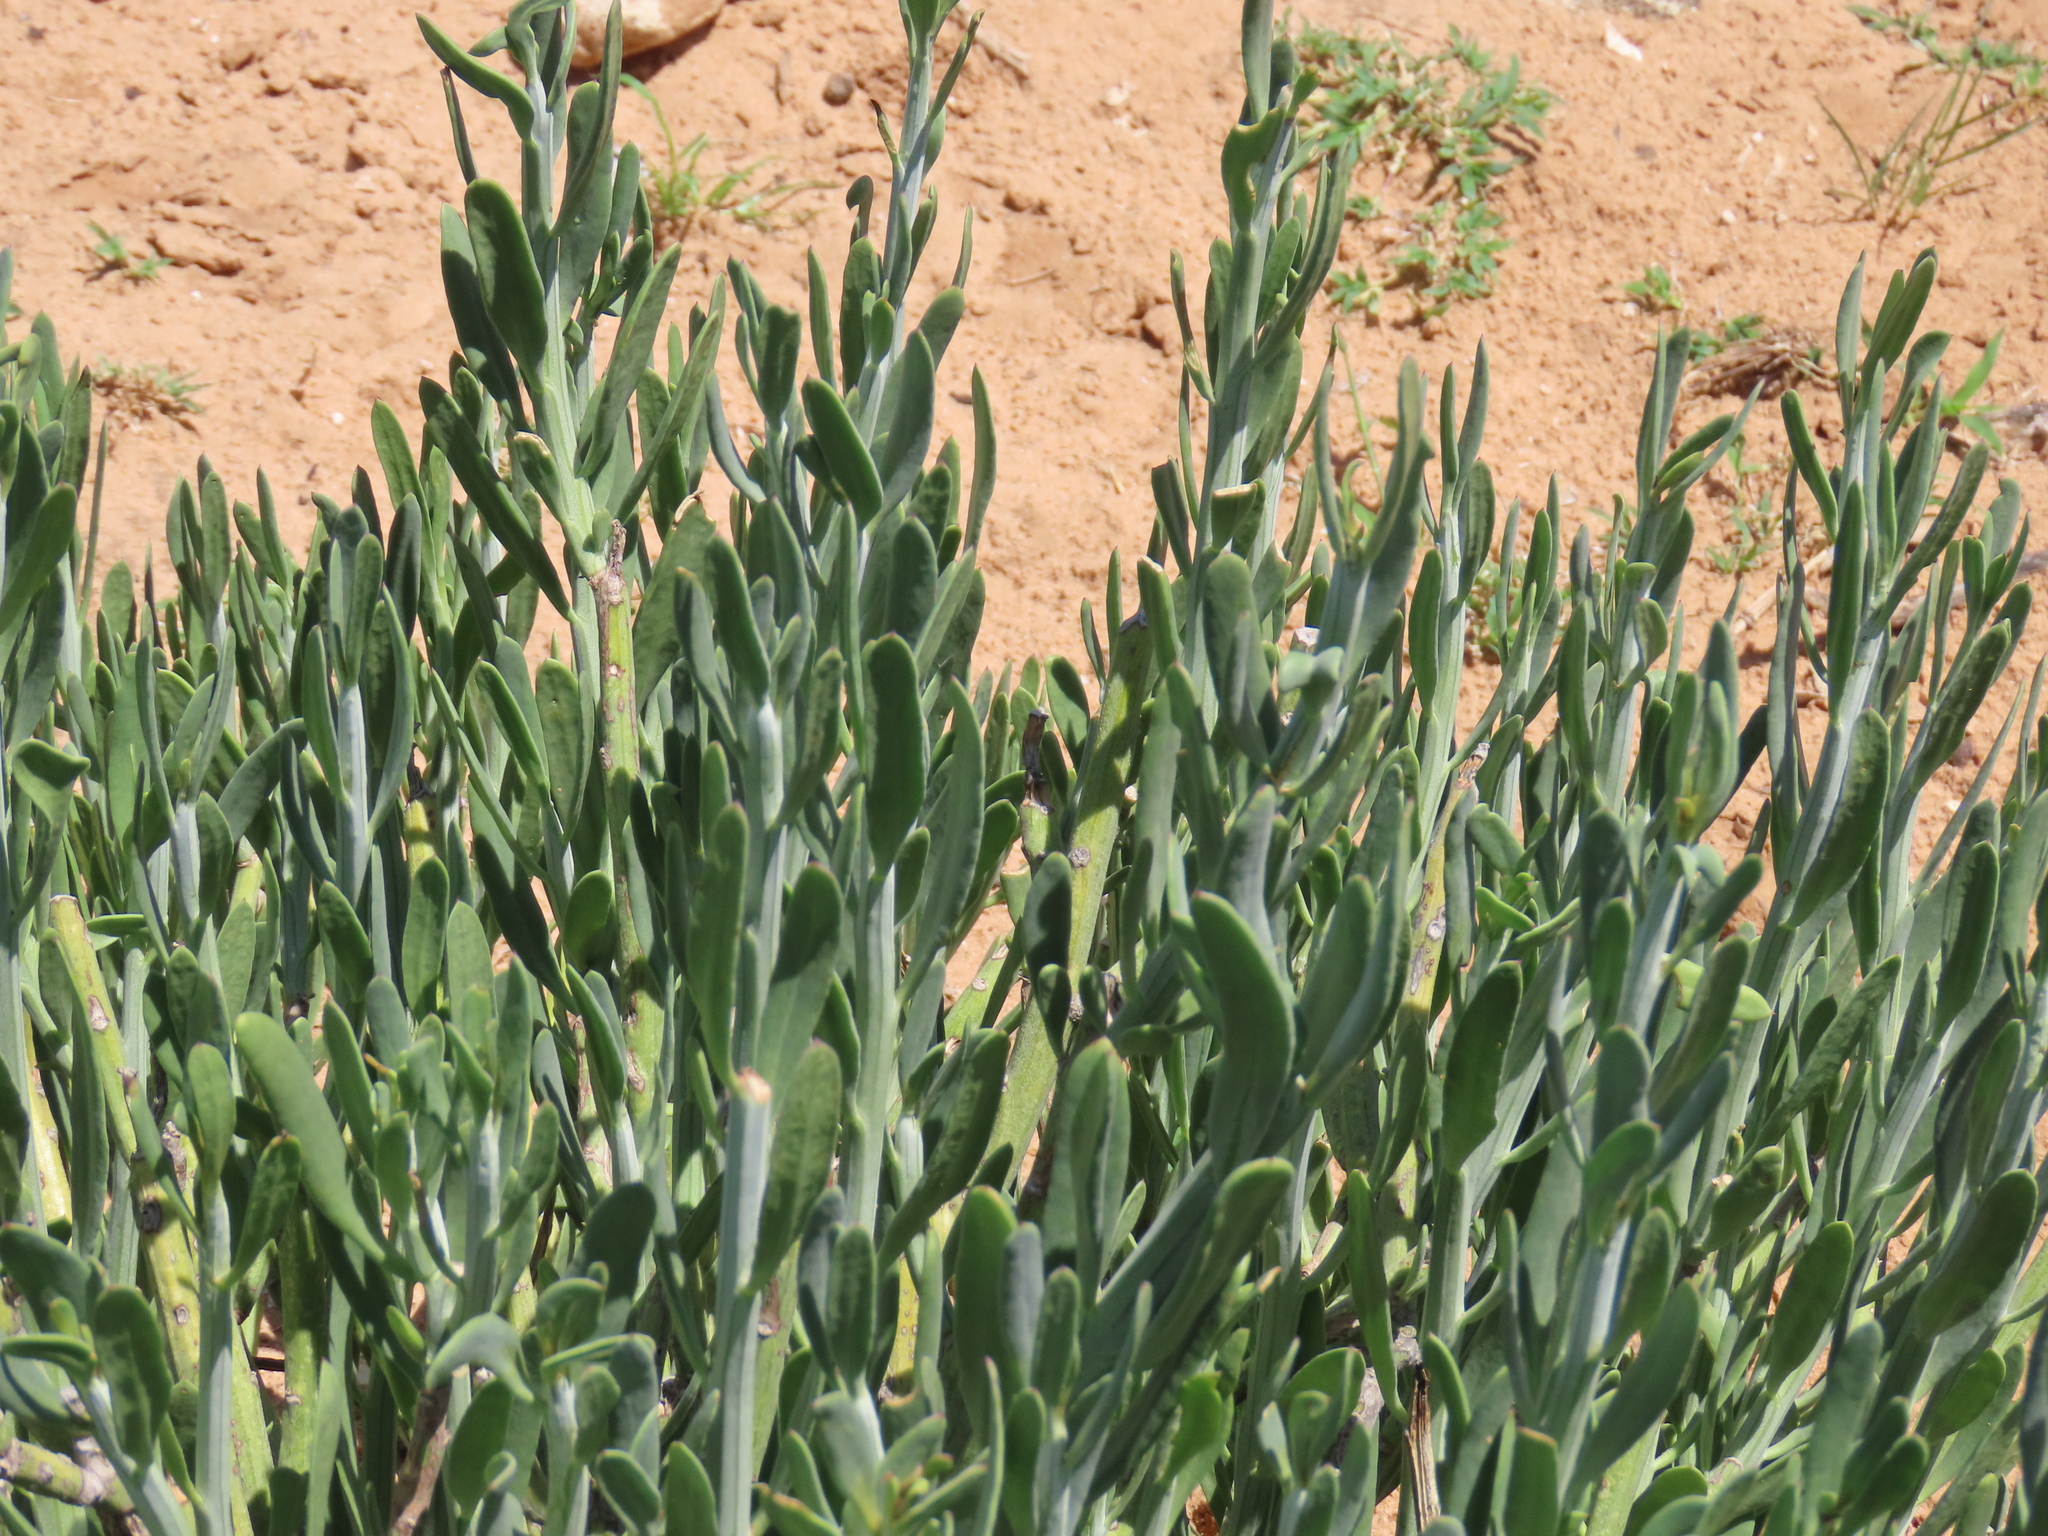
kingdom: Plantae
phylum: Tracheophyta
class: Magnoliopsida
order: Asterales
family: Asteraceae
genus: Curio
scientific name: Curio avasimontanus
